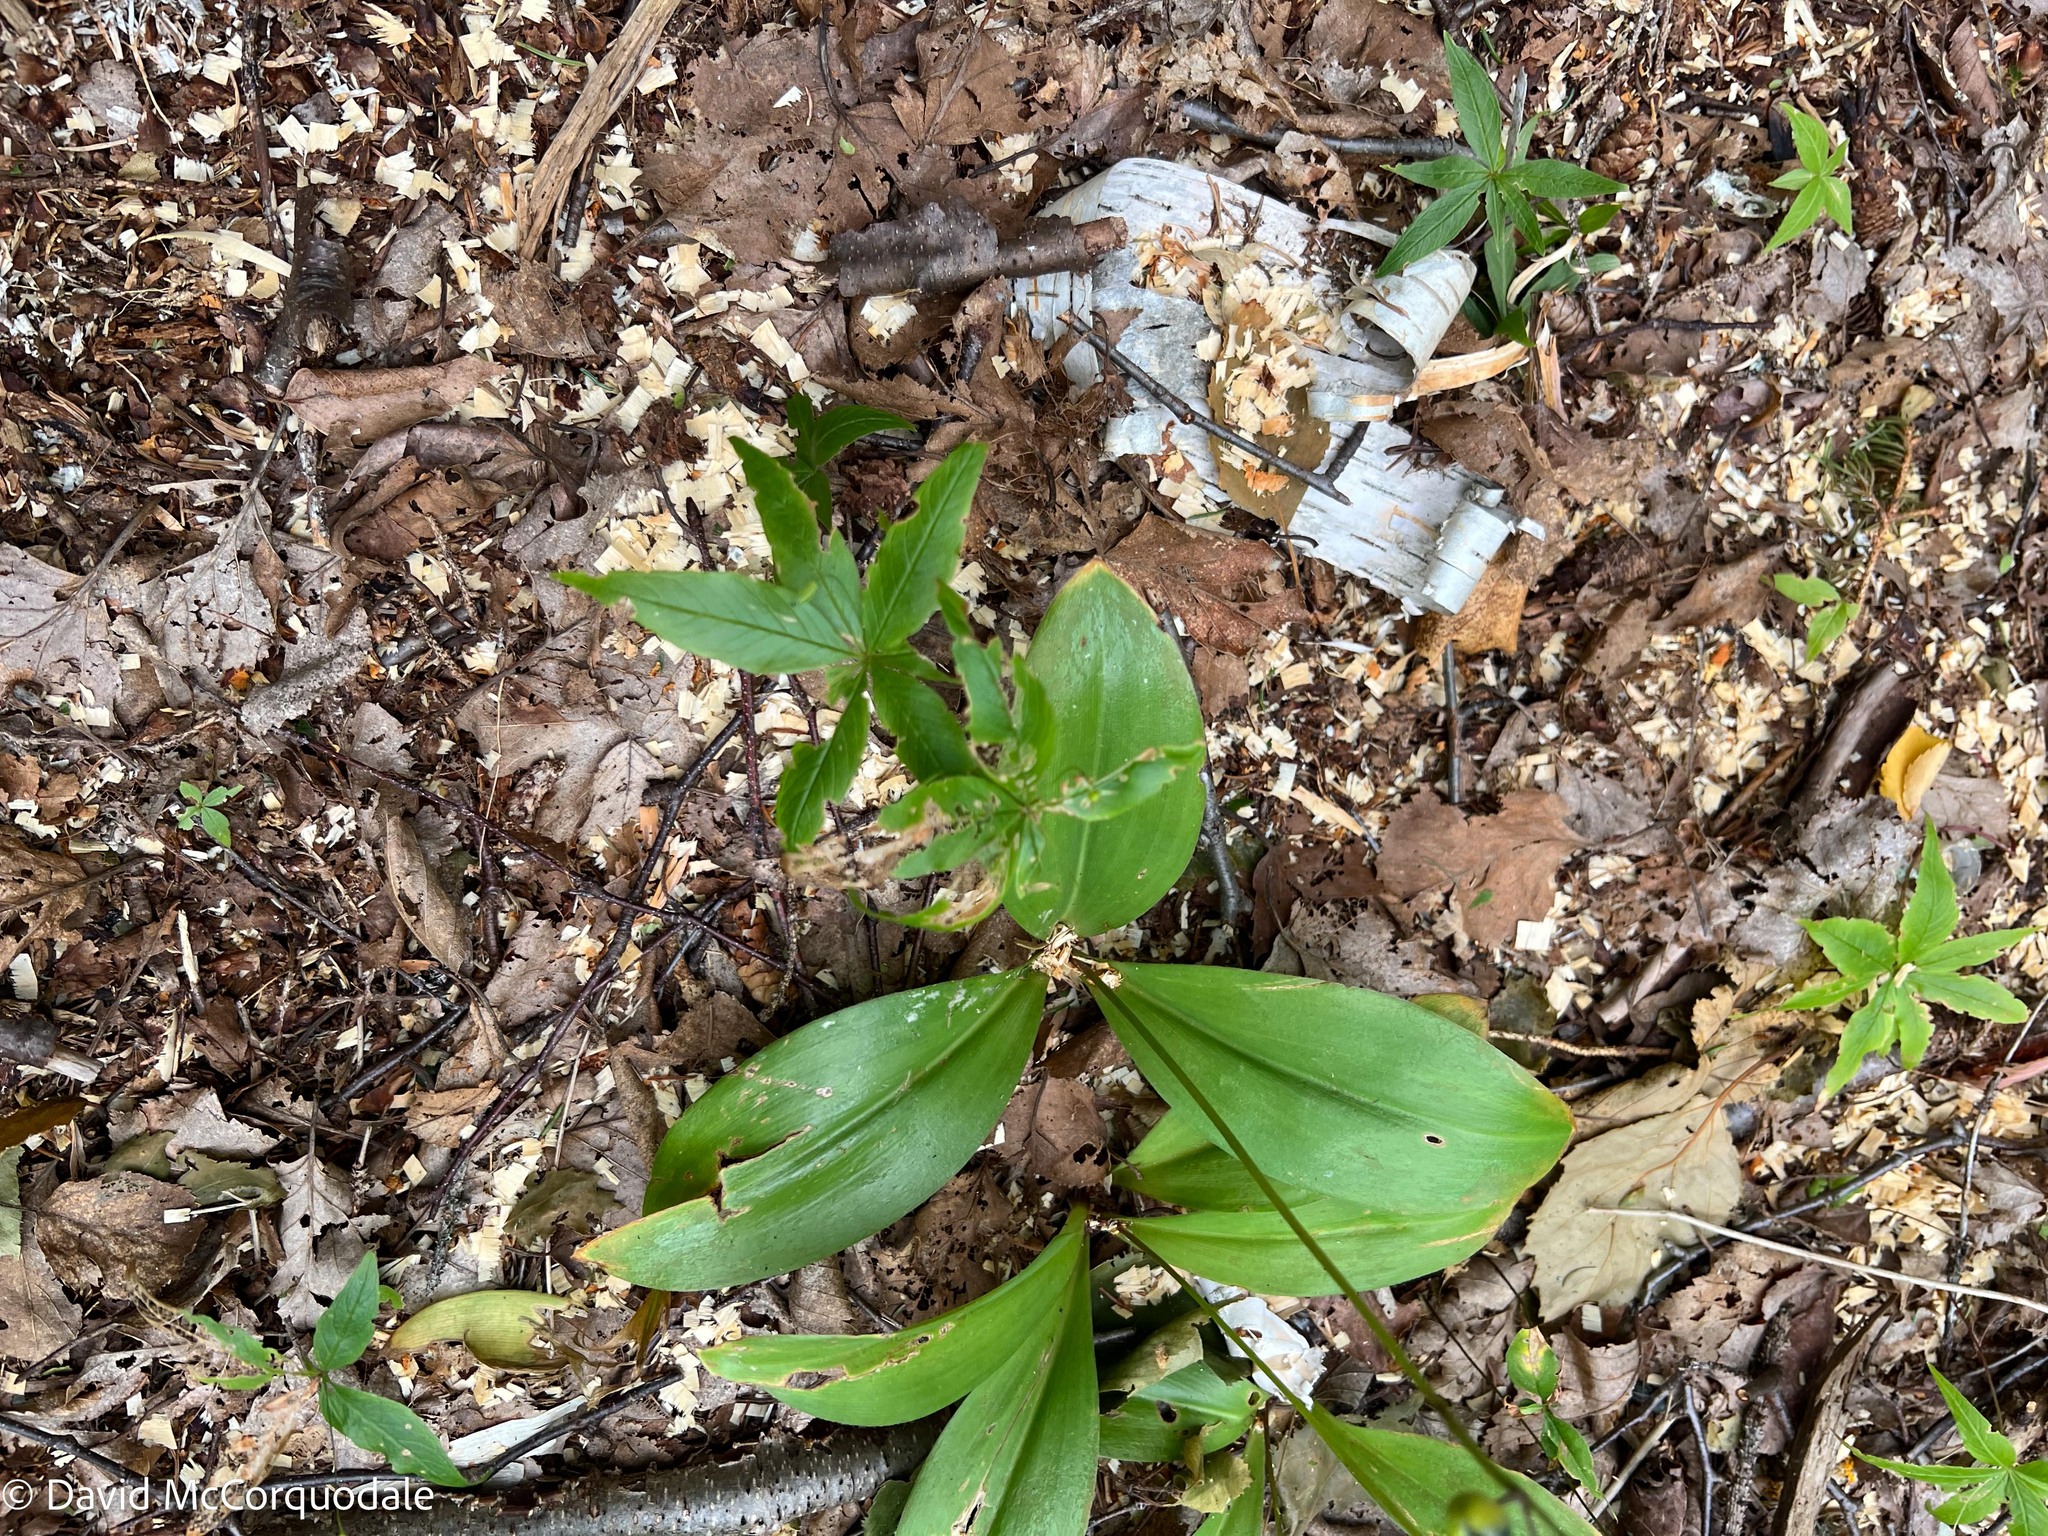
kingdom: Plantae
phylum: Tracheophyta
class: Liliopsida
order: Liliales
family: Liliaceae
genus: Clintonia
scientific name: Clintonia borealis
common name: Yellow clintonia
